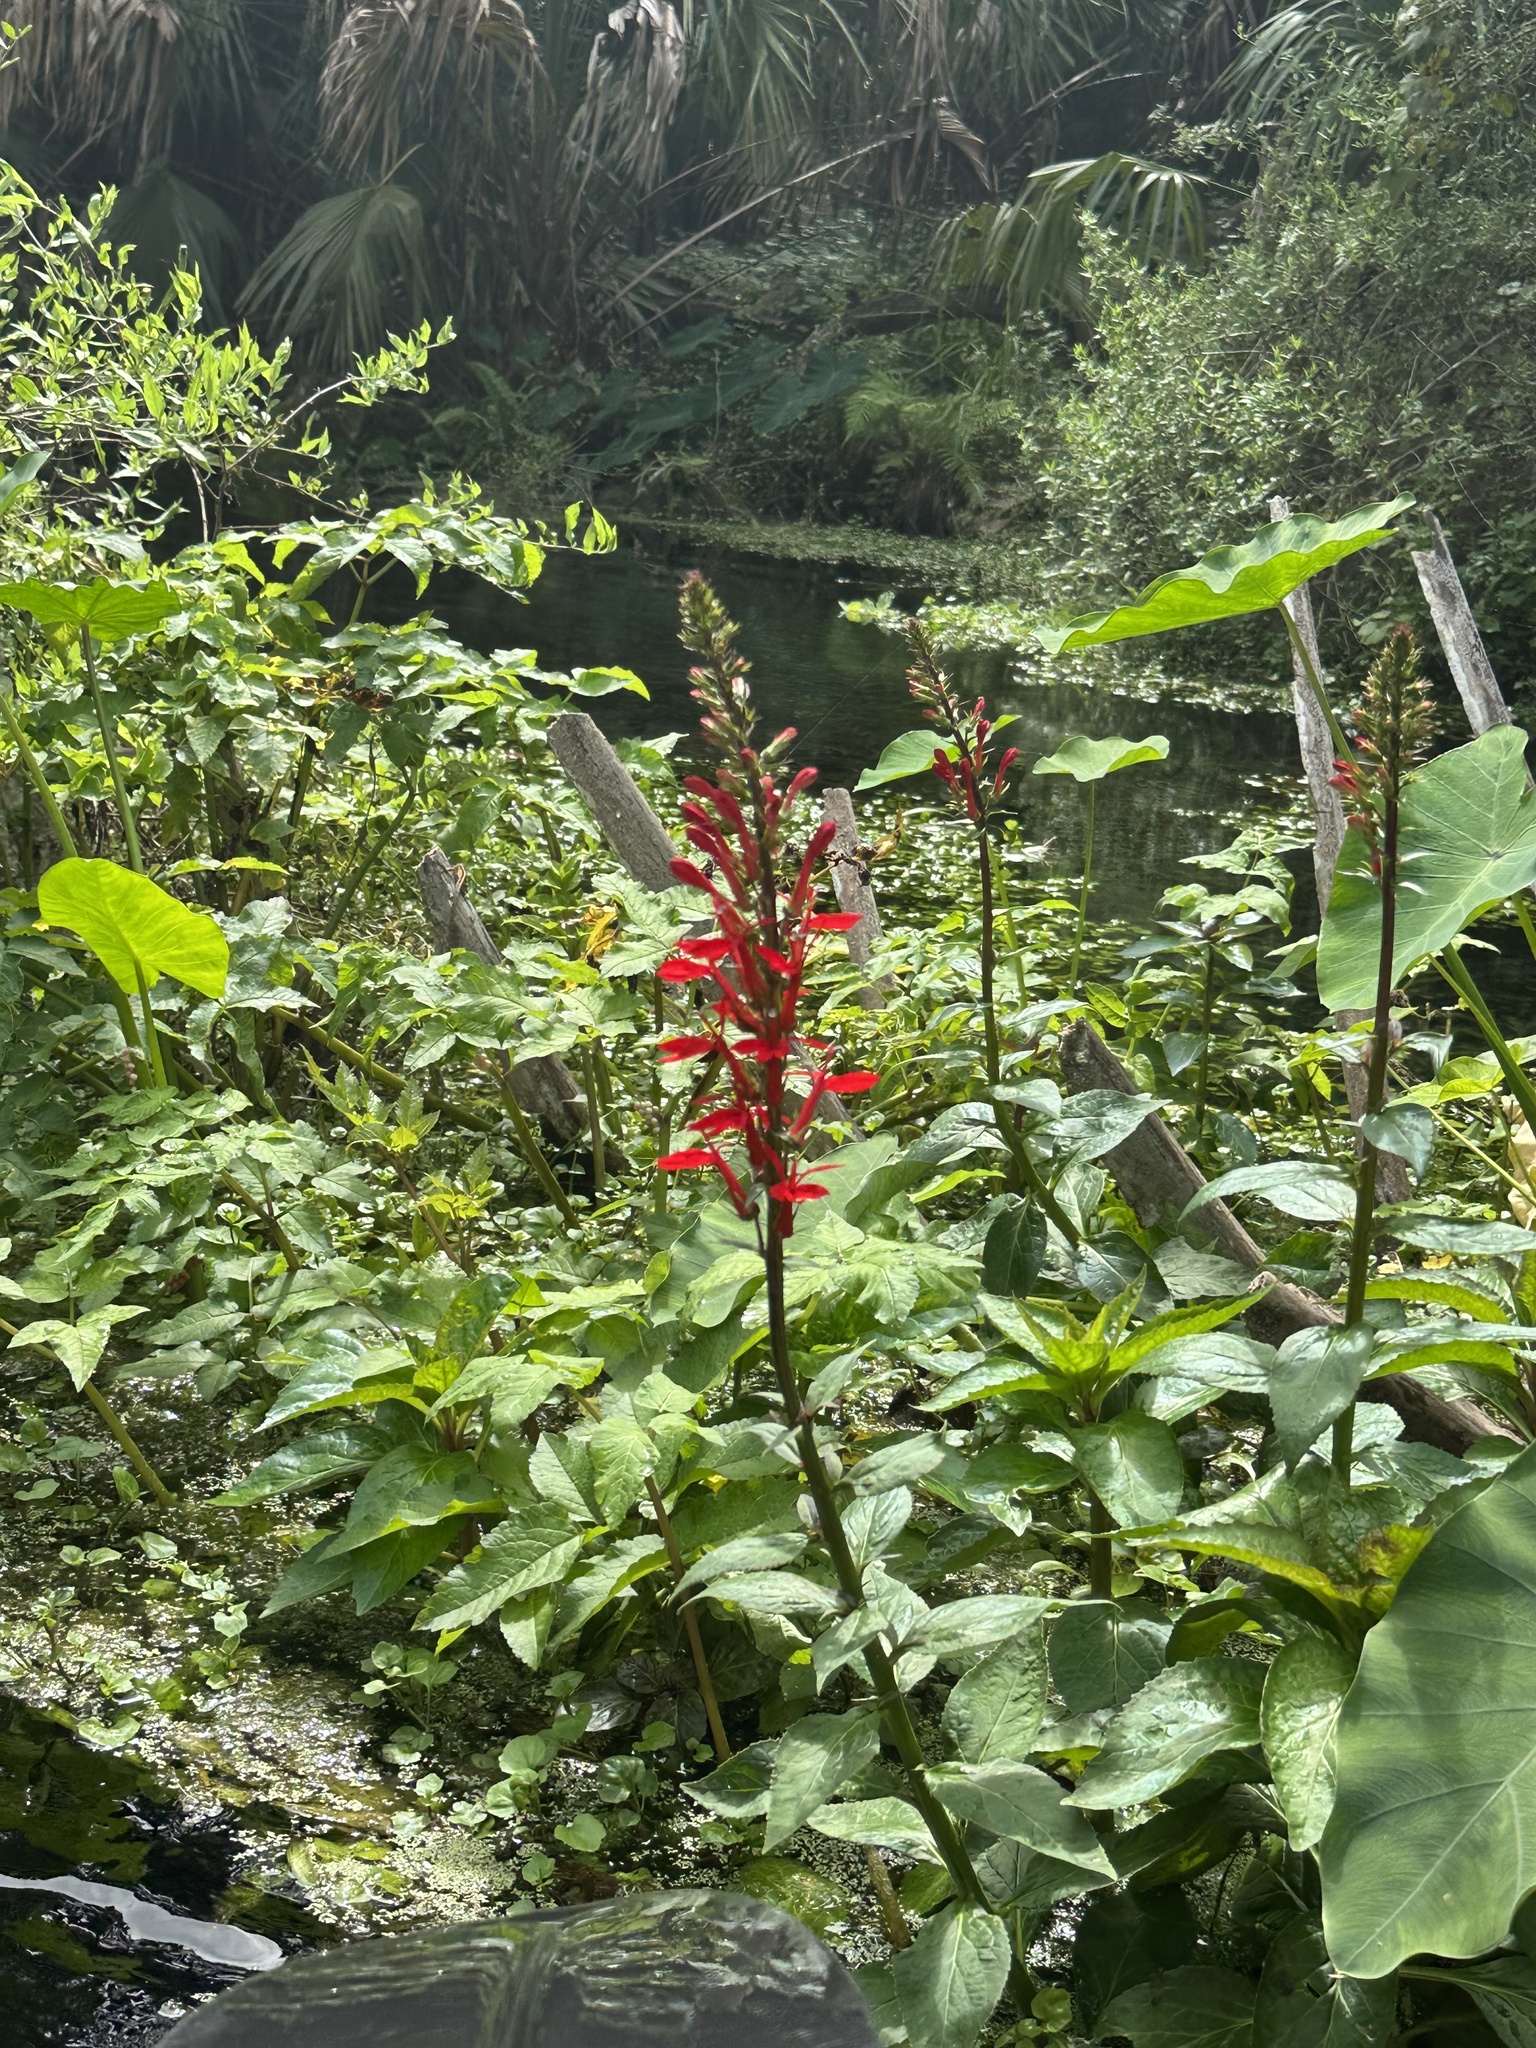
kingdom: Plantae
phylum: Tracheophyta
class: Magnoliopsida
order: Lamiales
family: Acanthaceae
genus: Odontonema
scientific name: Odontonema tubaeforme
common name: Firespike
